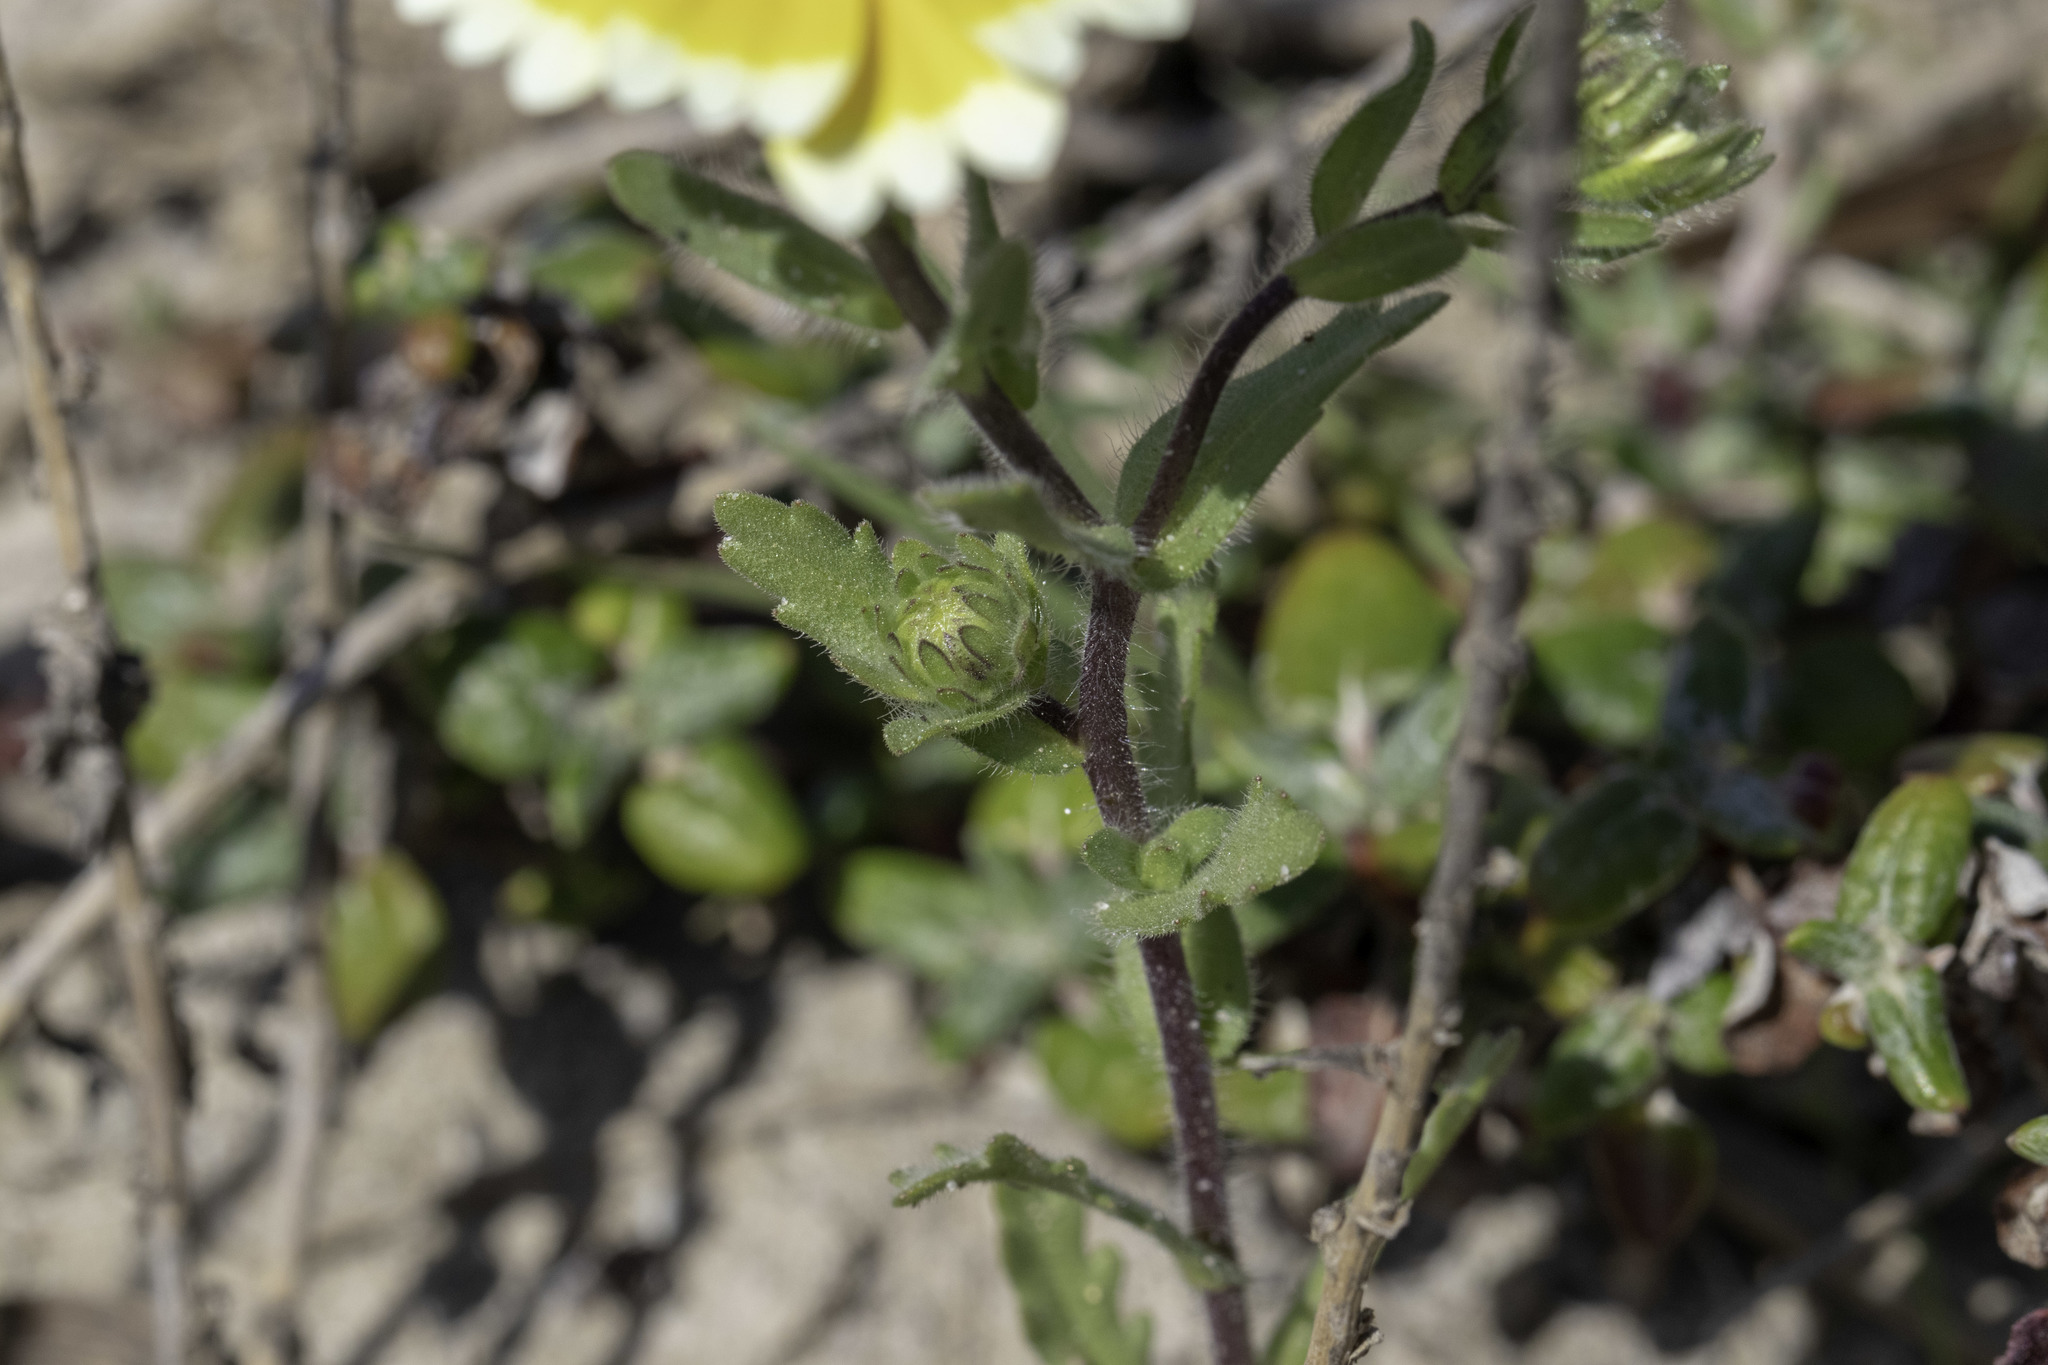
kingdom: Plantae
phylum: Tracheophyta
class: Magnoliopsida
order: Asterales
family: Asteraceae
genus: Layia
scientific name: Layia platyglossa
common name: Tidy-tips
